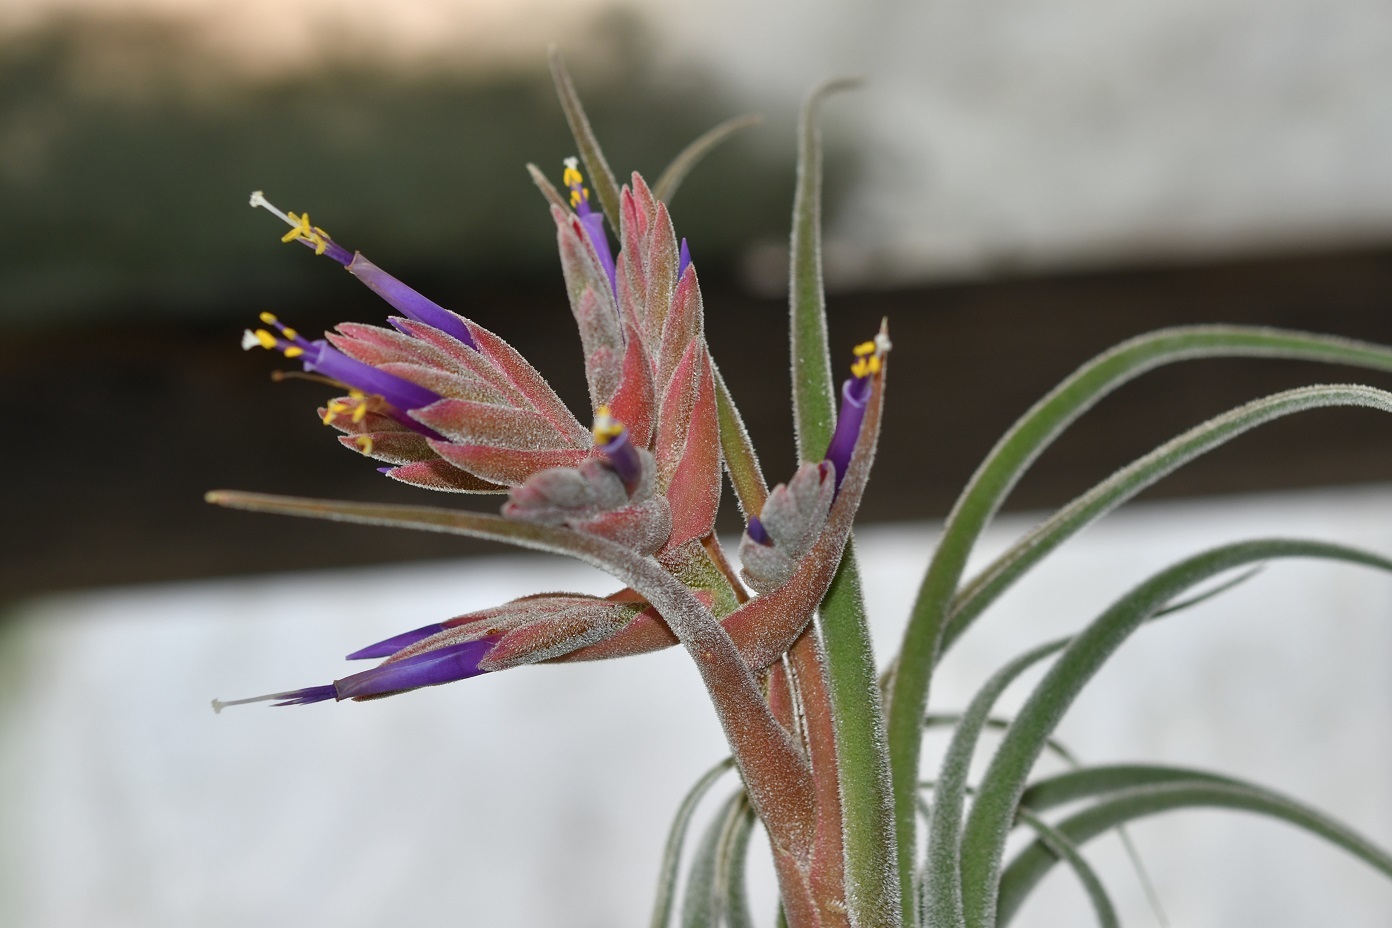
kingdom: Plantae
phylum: Tracheophyta
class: Liliopsida
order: Poales
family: Bromeliaceae
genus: Tillandsia
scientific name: Tillandsia seleriana
